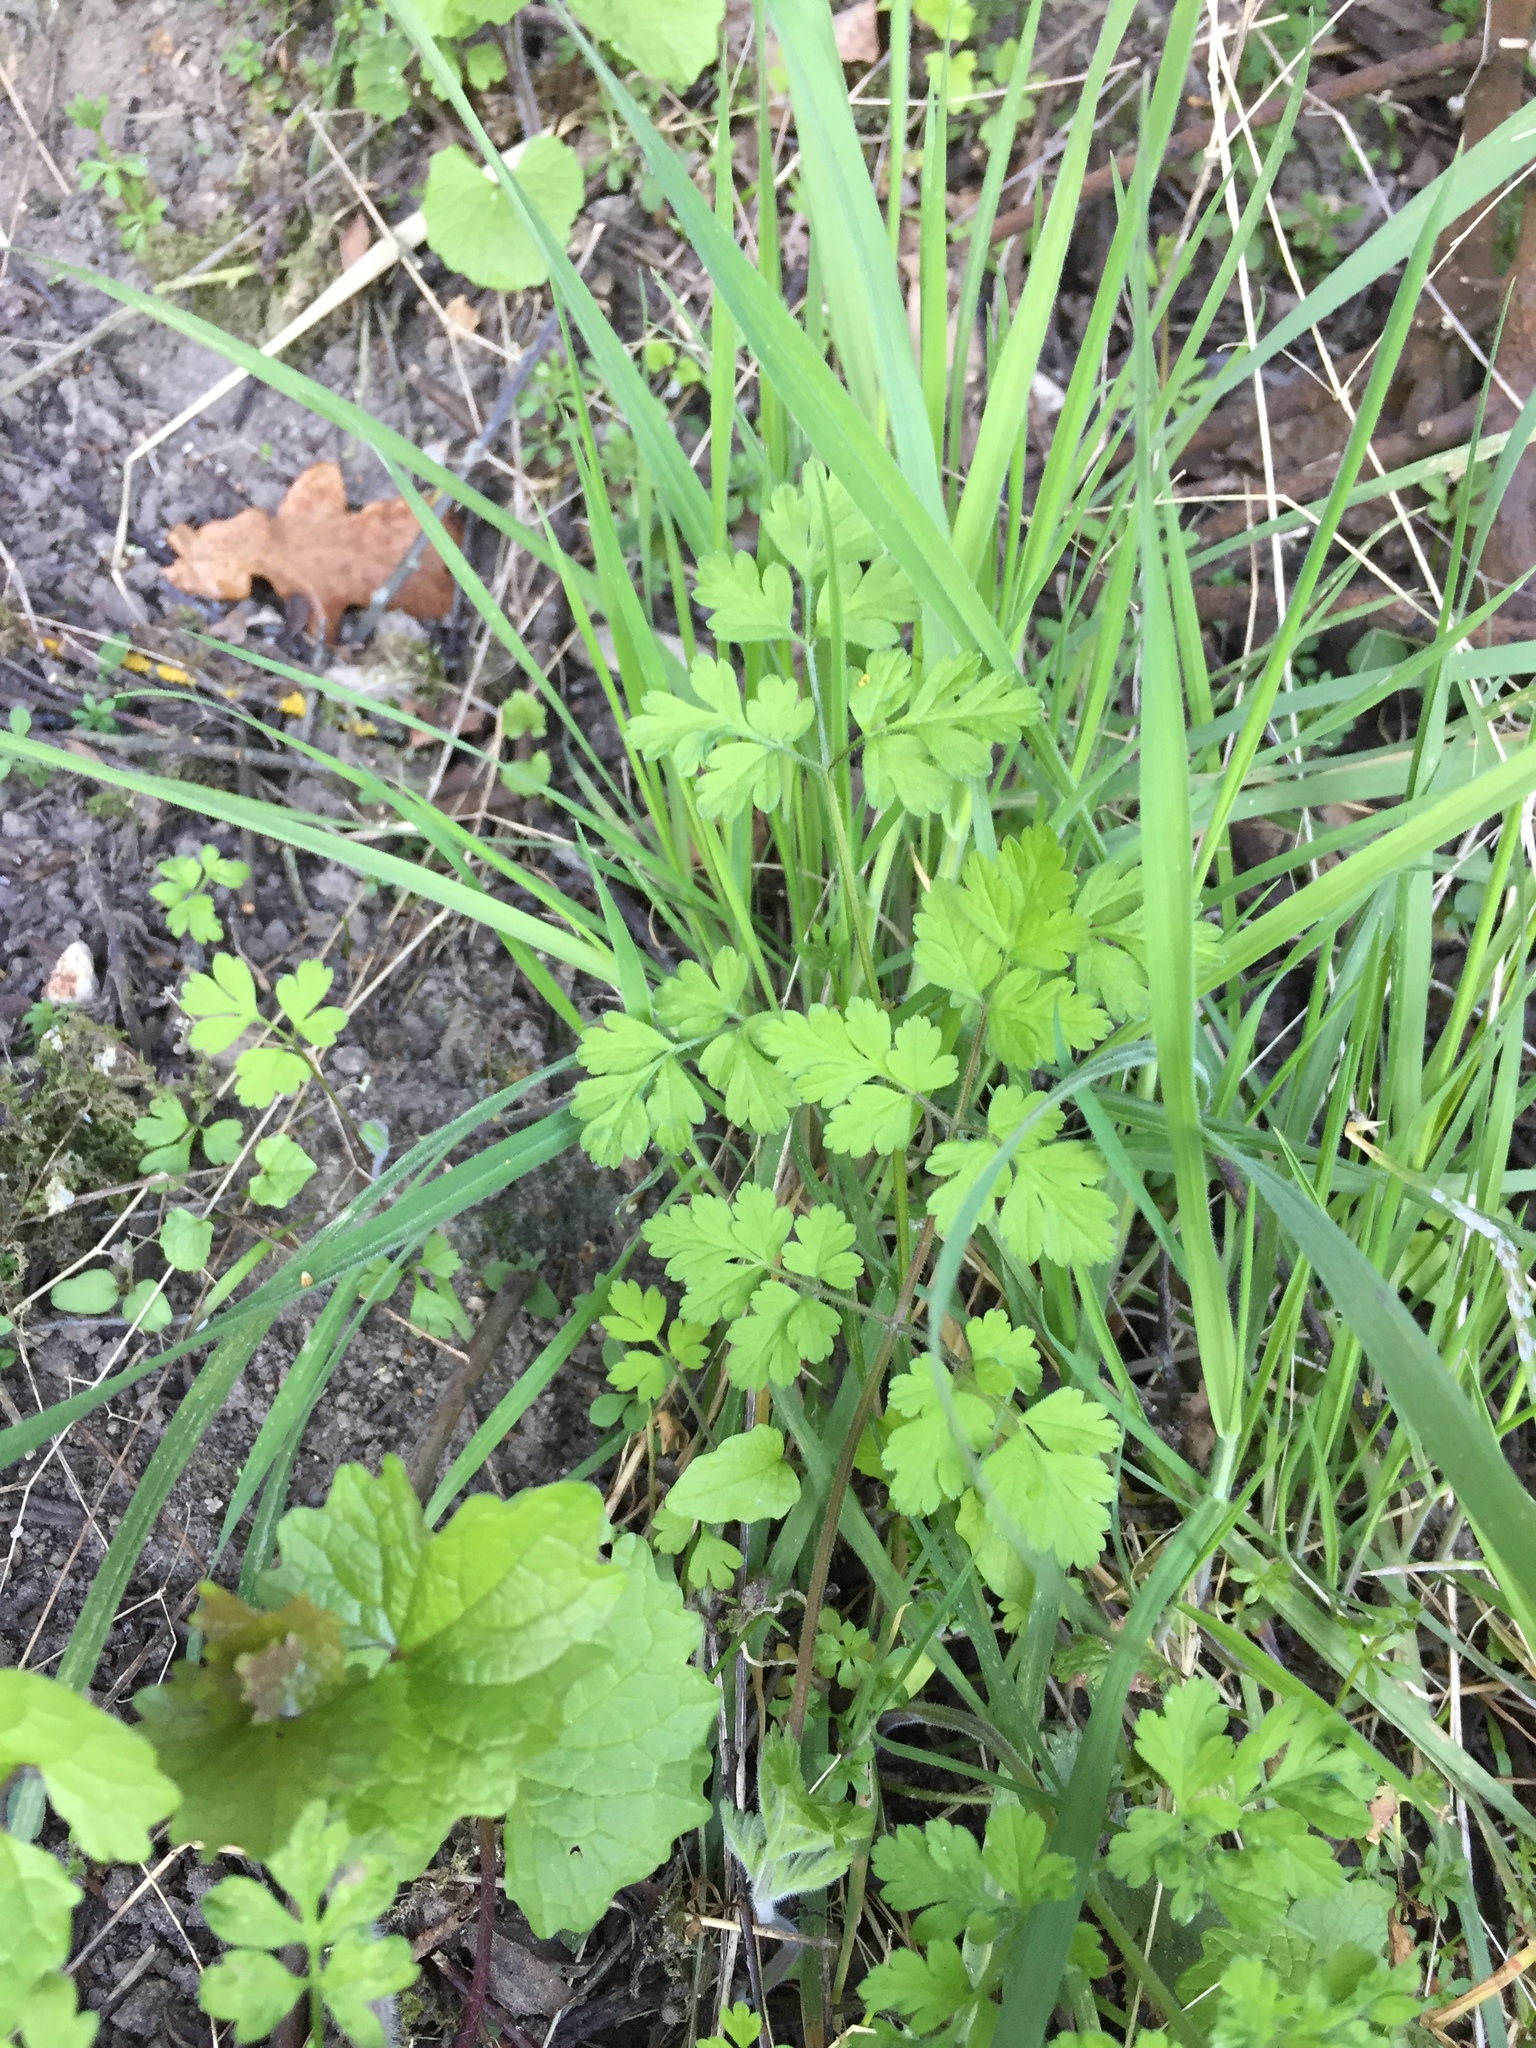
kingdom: Plantae
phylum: Tracheophyta
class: Magnoliopsida
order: Apiales
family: Apiaceae
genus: Chaerophyllum
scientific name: Chaerophyllum temulum
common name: Rough chervil
